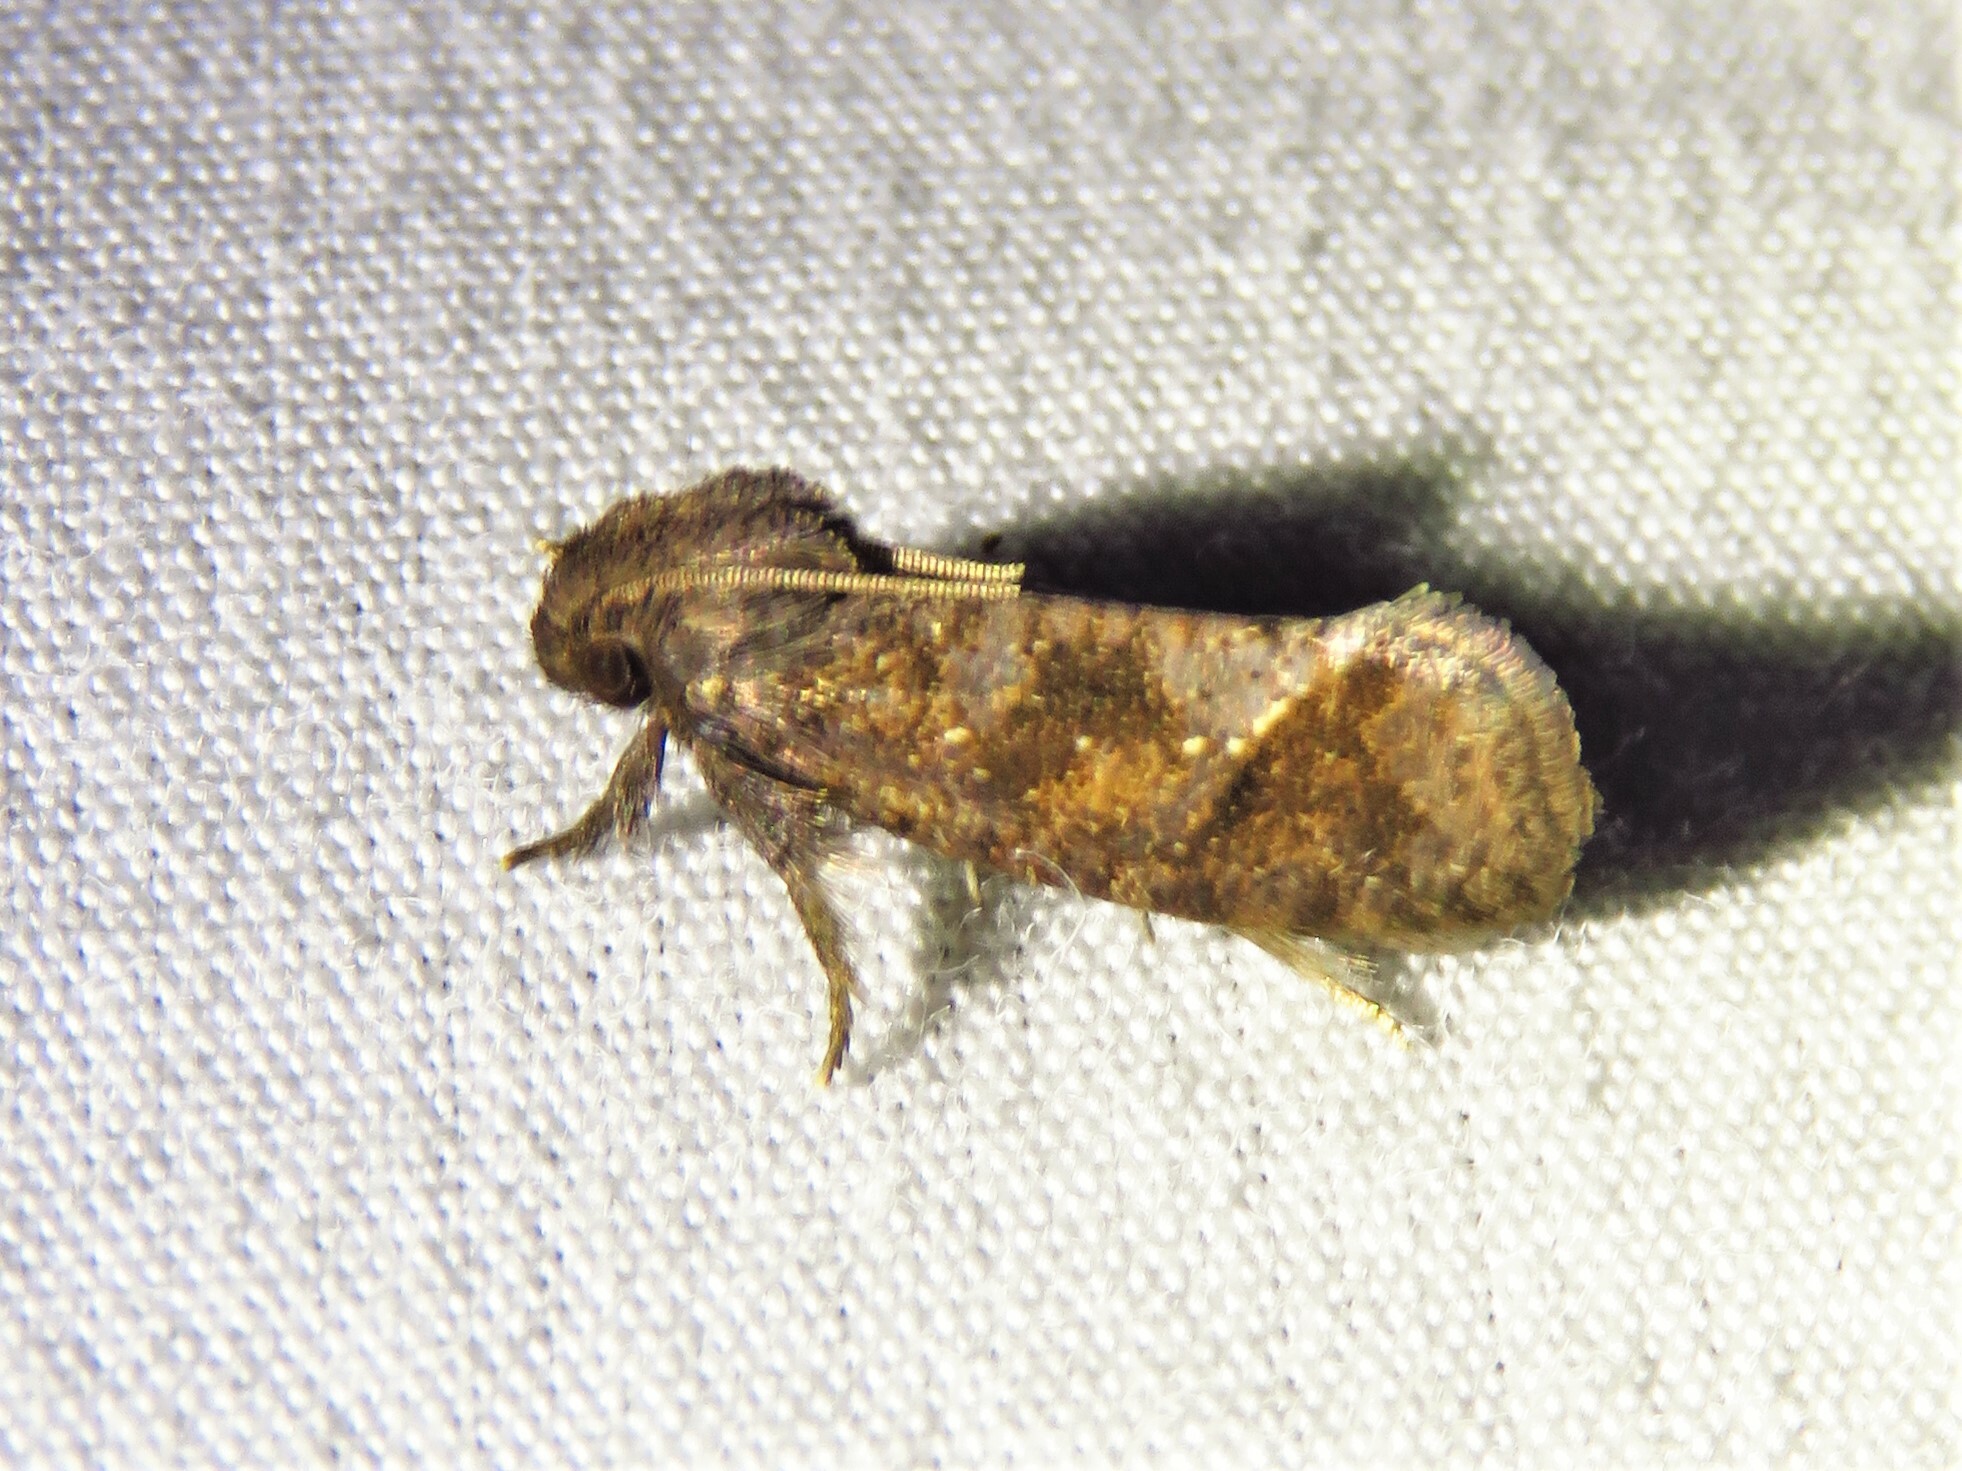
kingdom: Animalia
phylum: Arthropoda
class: Insecta
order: Lepidoptera
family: Tineidae
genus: Acrolophus
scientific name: Acrolophus texanella
